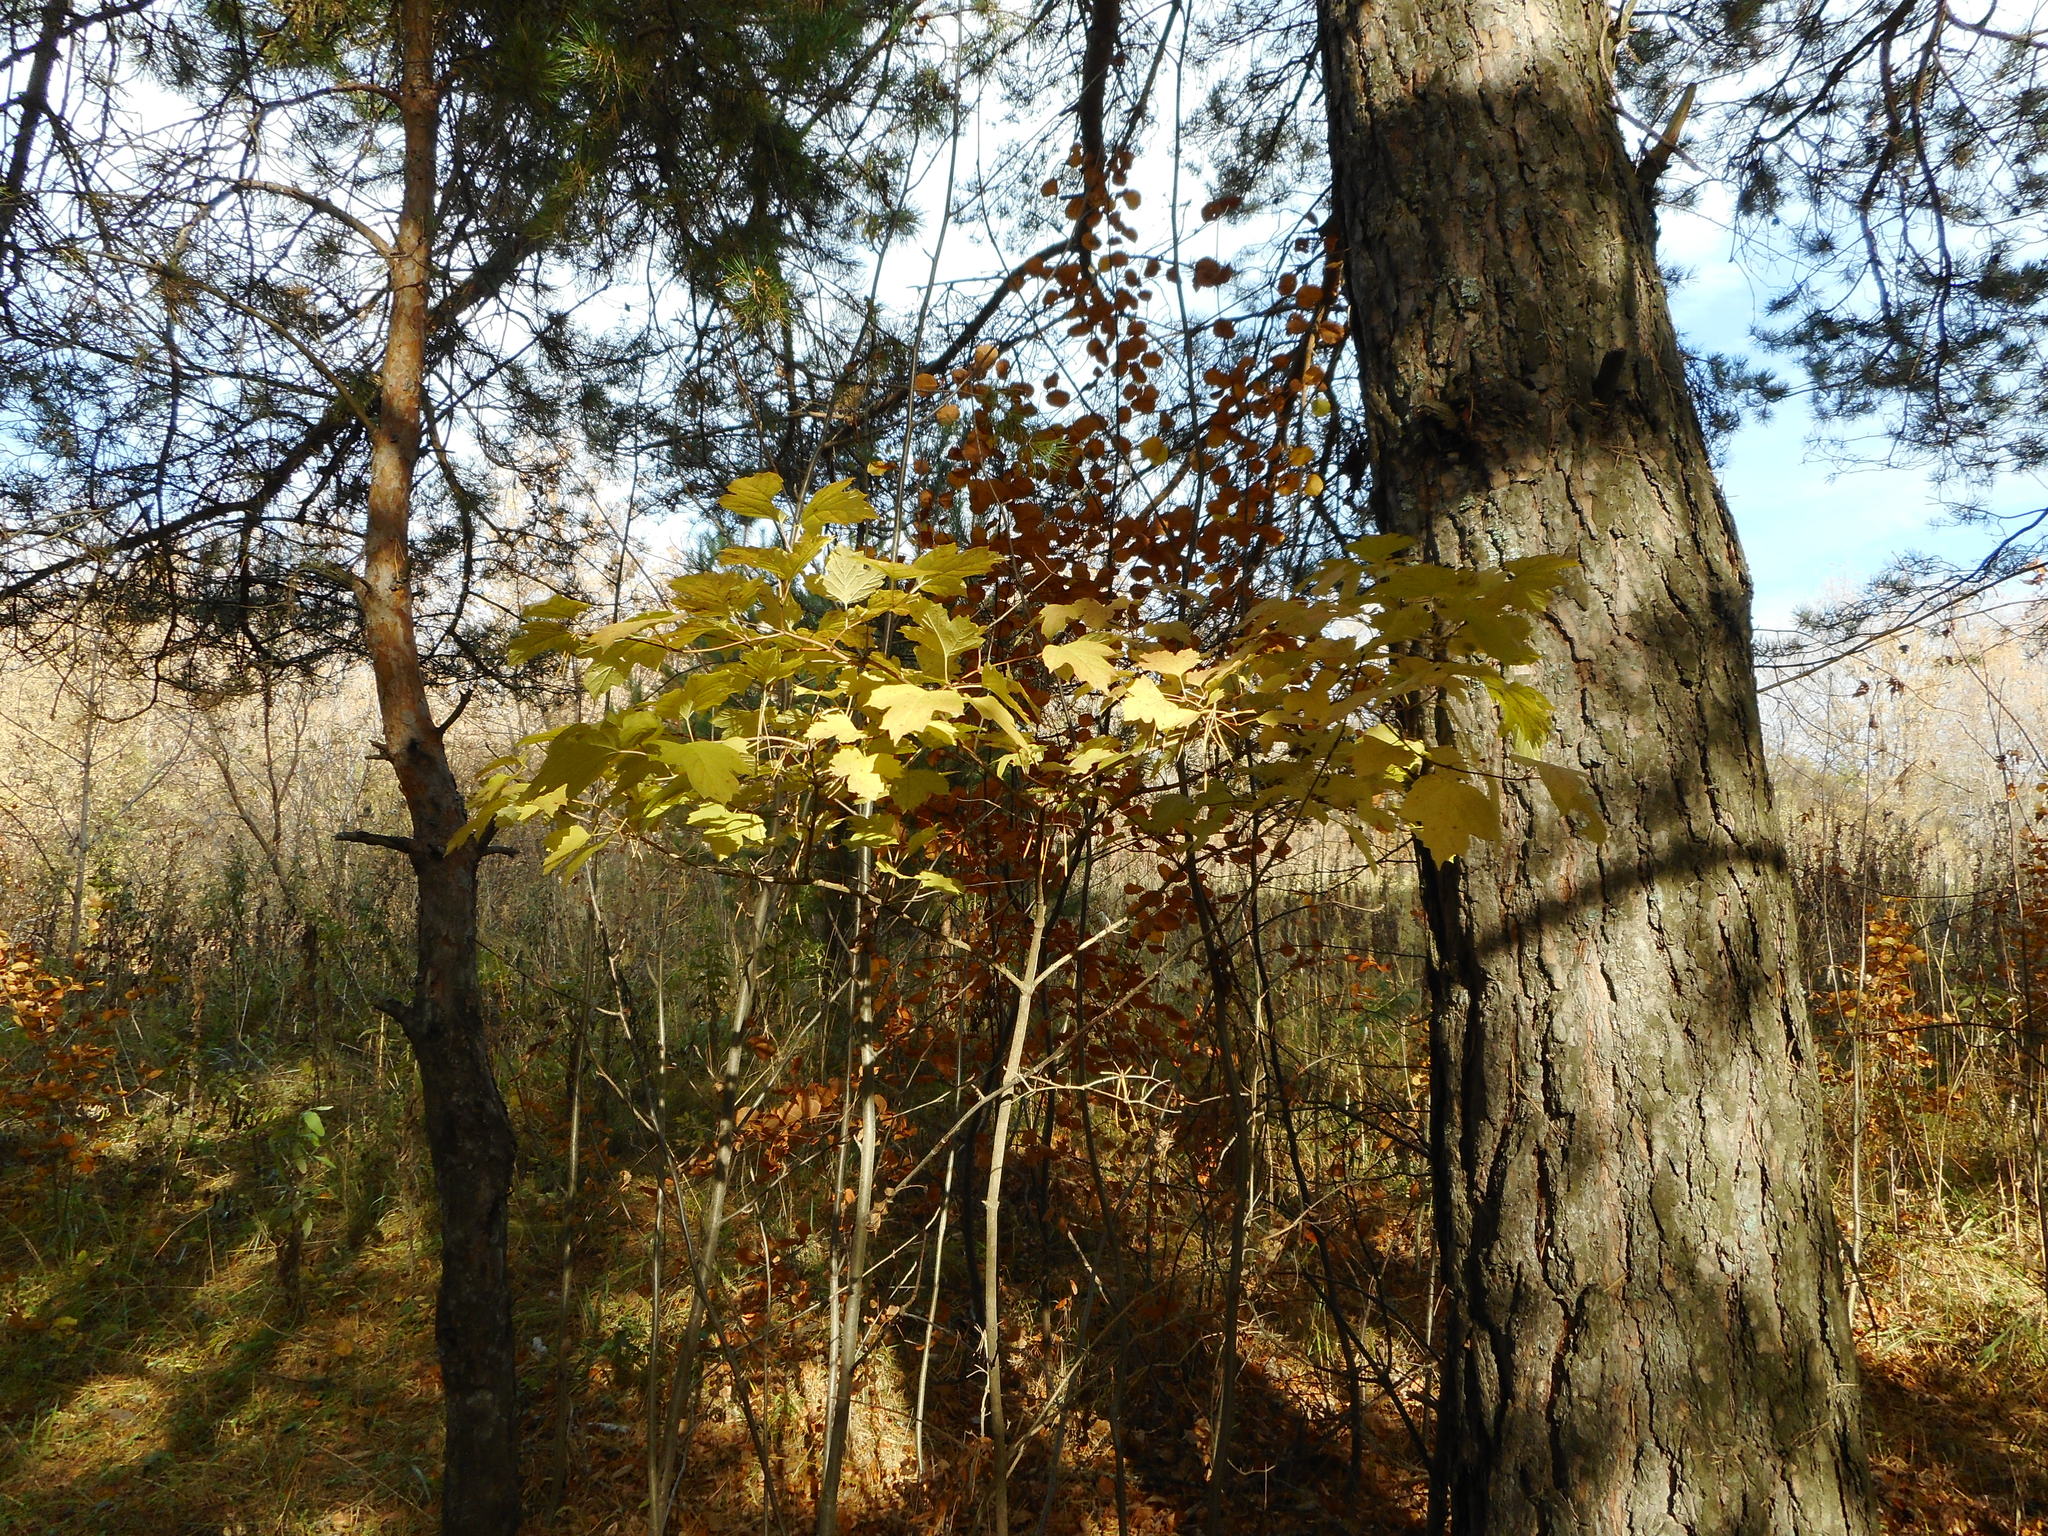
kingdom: Plantae
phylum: Tracheophyta
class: Magnoliopsida
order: Dipsacales
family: Viburnaceae
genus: Viburnum
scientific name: Viburnum opulus
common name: Guelder-rose
